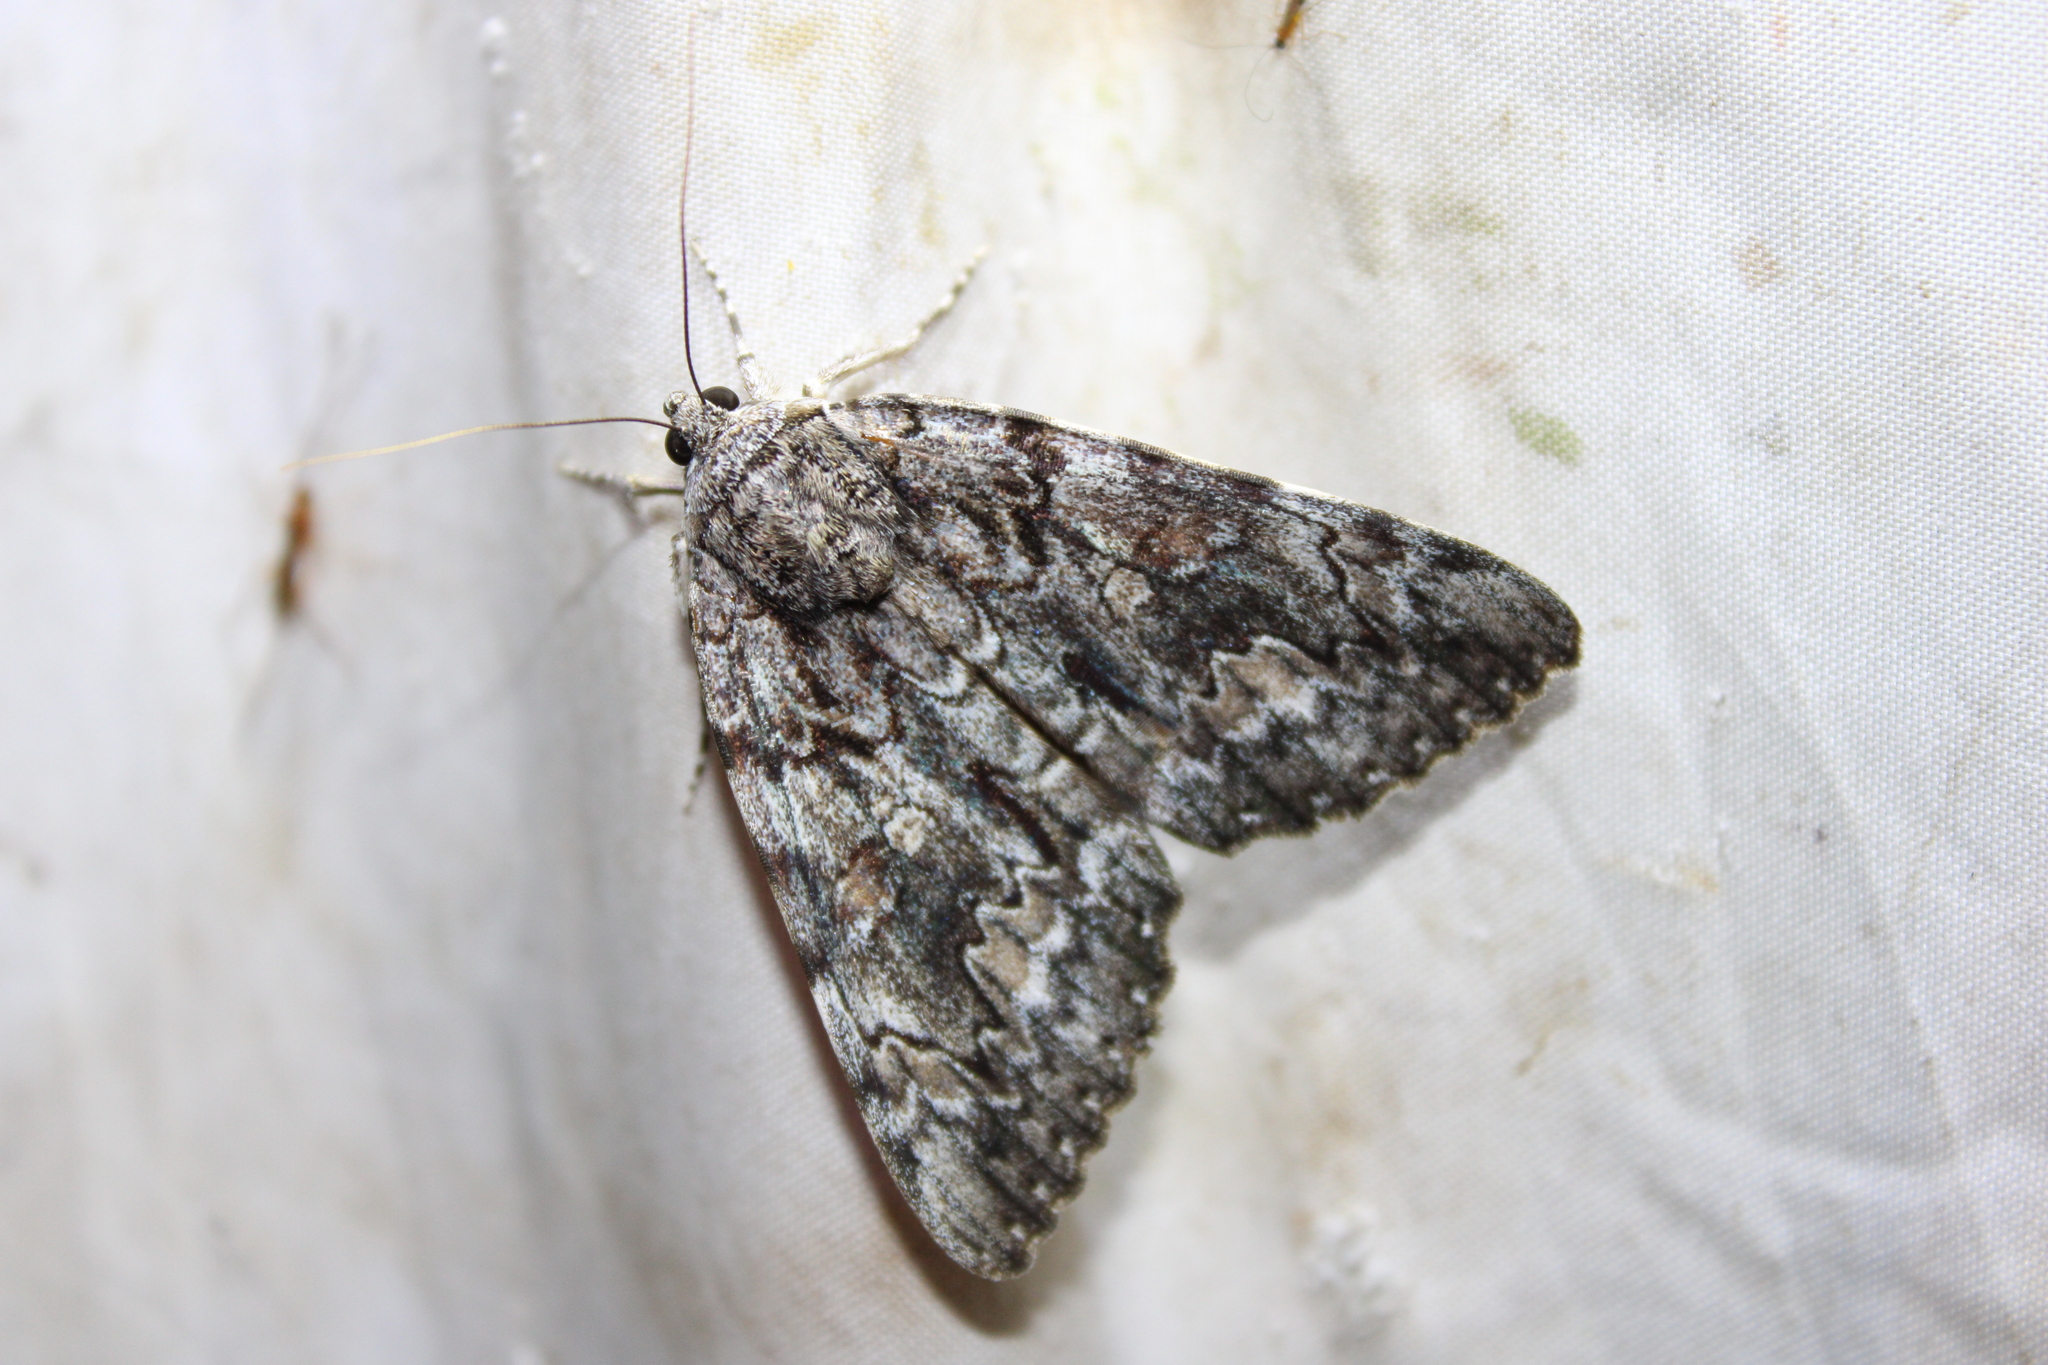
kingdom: Animalia
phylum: Arthropoda
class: Insecta
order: Lepidoptera
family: Erebidae
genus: Catocala
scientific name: Catocala palaeogama
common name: Oldwife underwing
